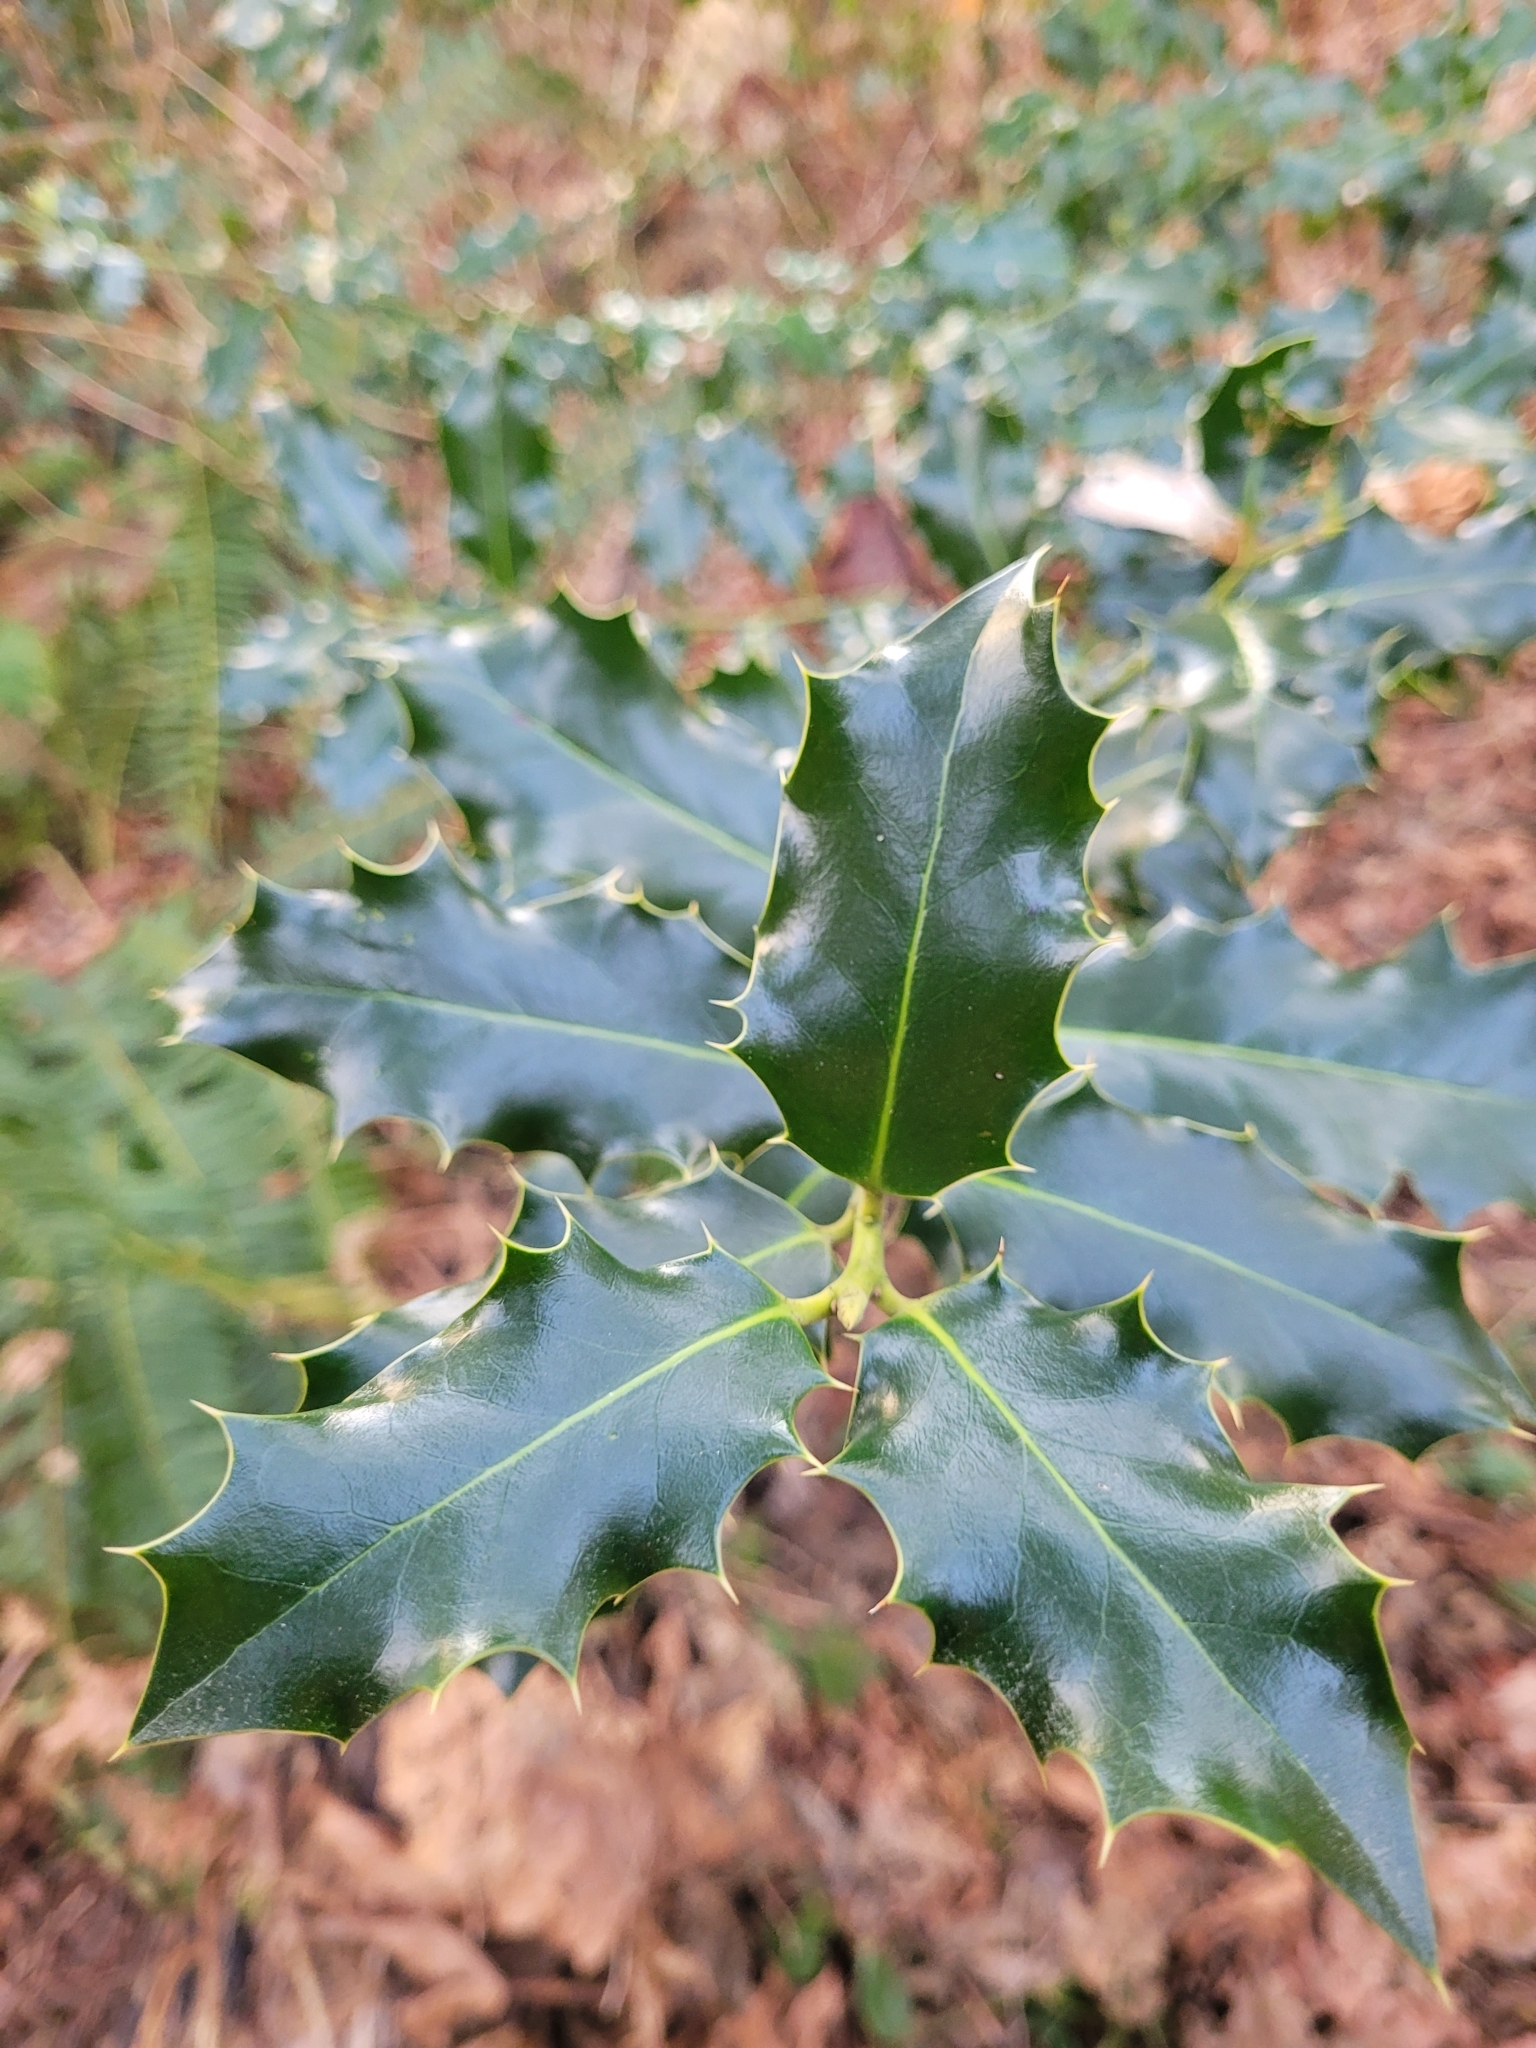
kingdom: Plantae
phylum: Tracheophyta
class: Magnoliopsida
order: Aquifoliales
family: Aquifoliaceae
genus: Ilex
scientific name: Ilex aquifolium
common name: English holly
